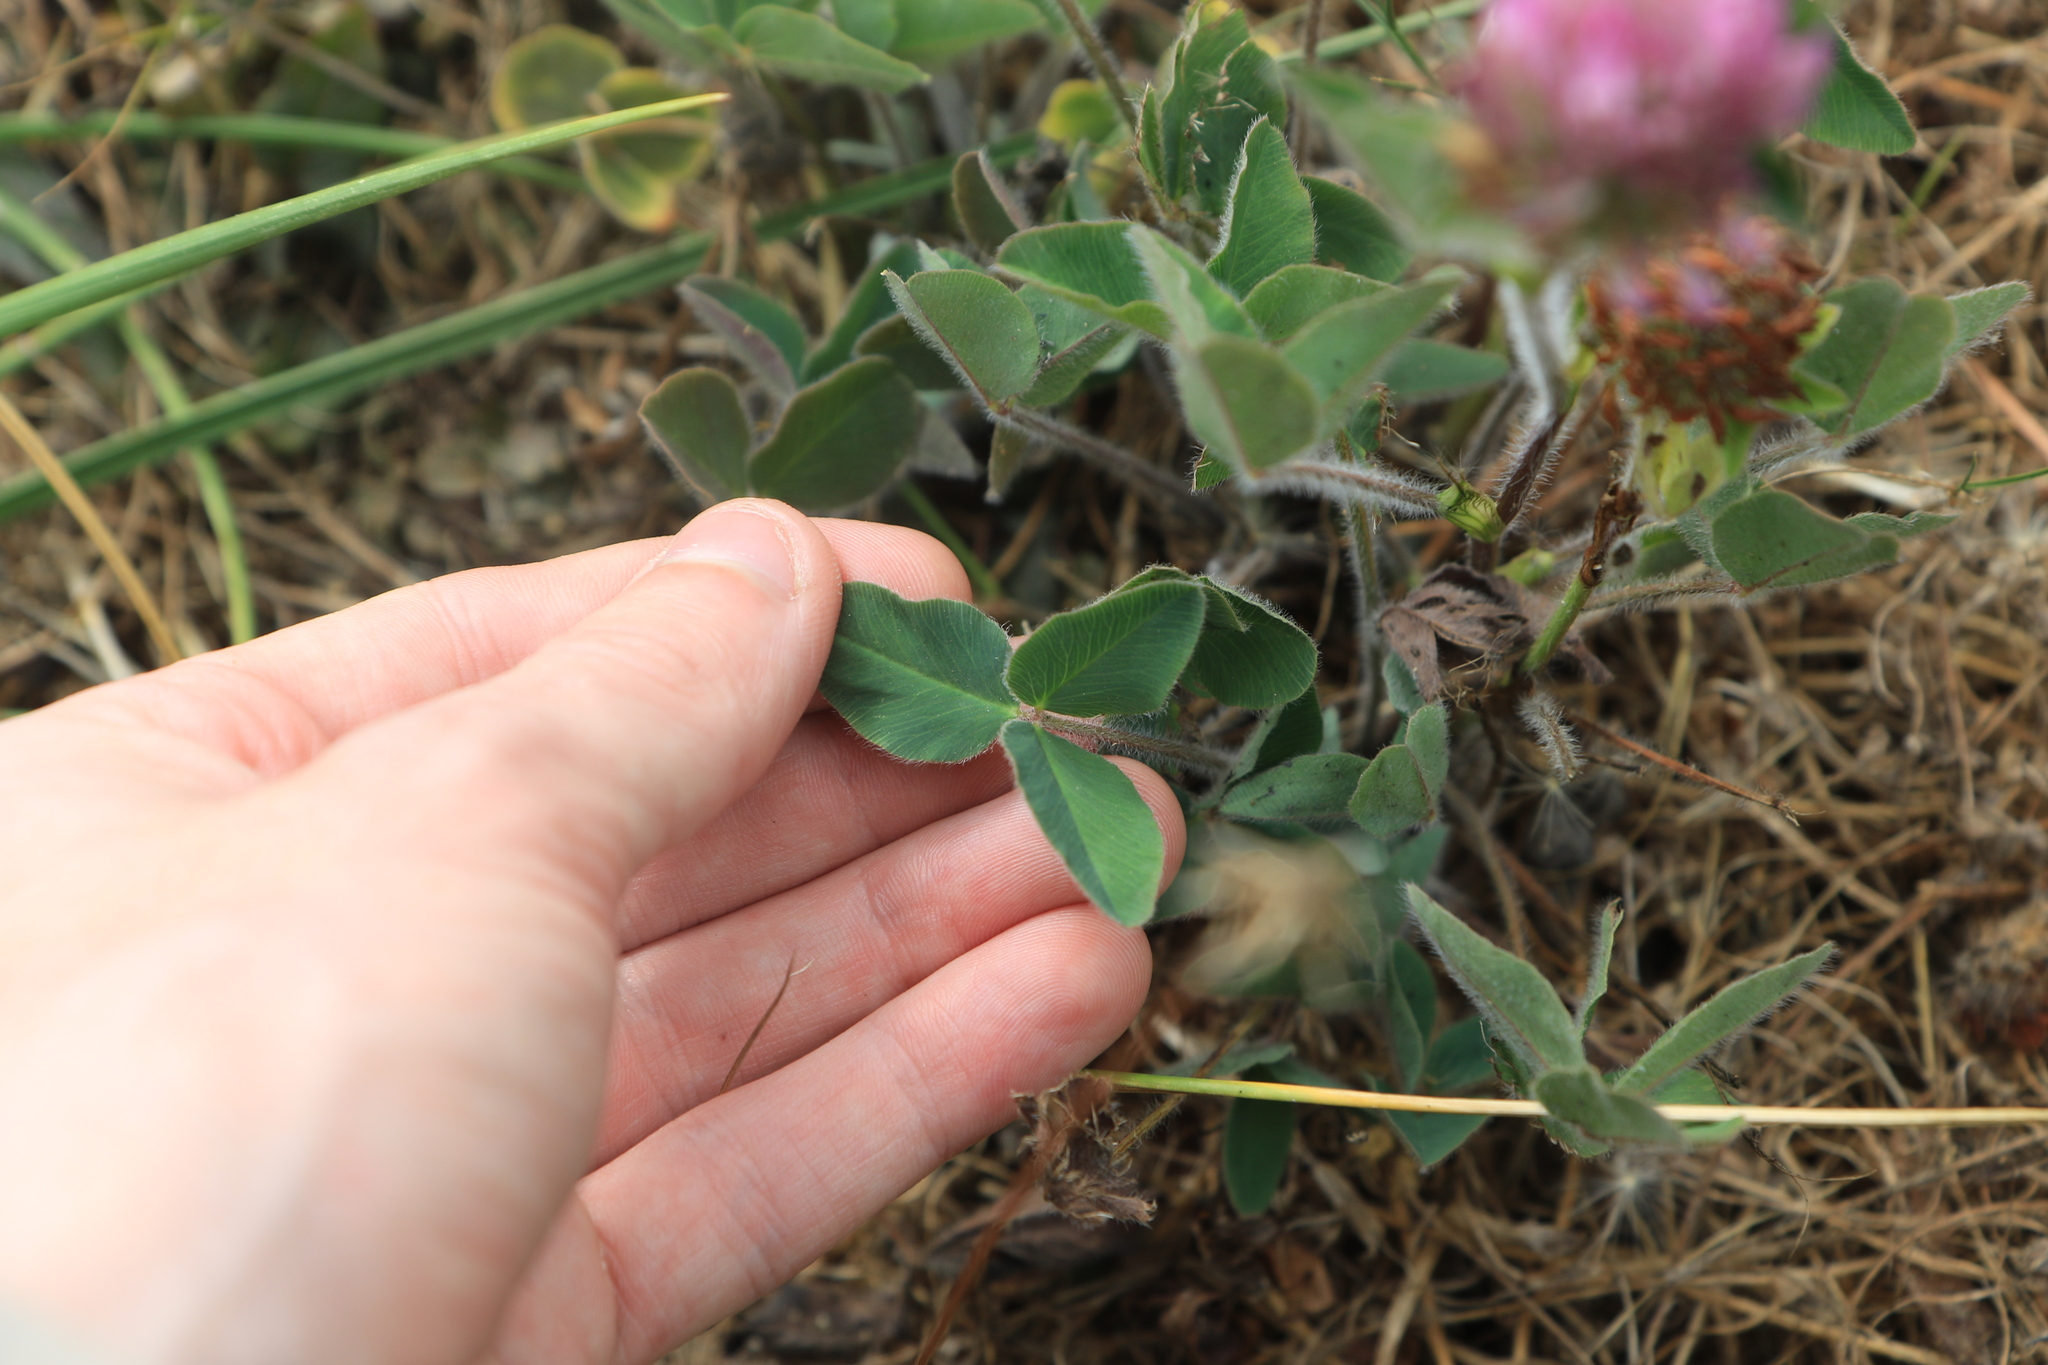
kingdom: Plantae
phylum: Tracheophyta
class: Magnoliopsida
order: Fabales
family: Fabaceae
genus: Trifolium
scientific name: Trifolium pratense
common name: Red clover
